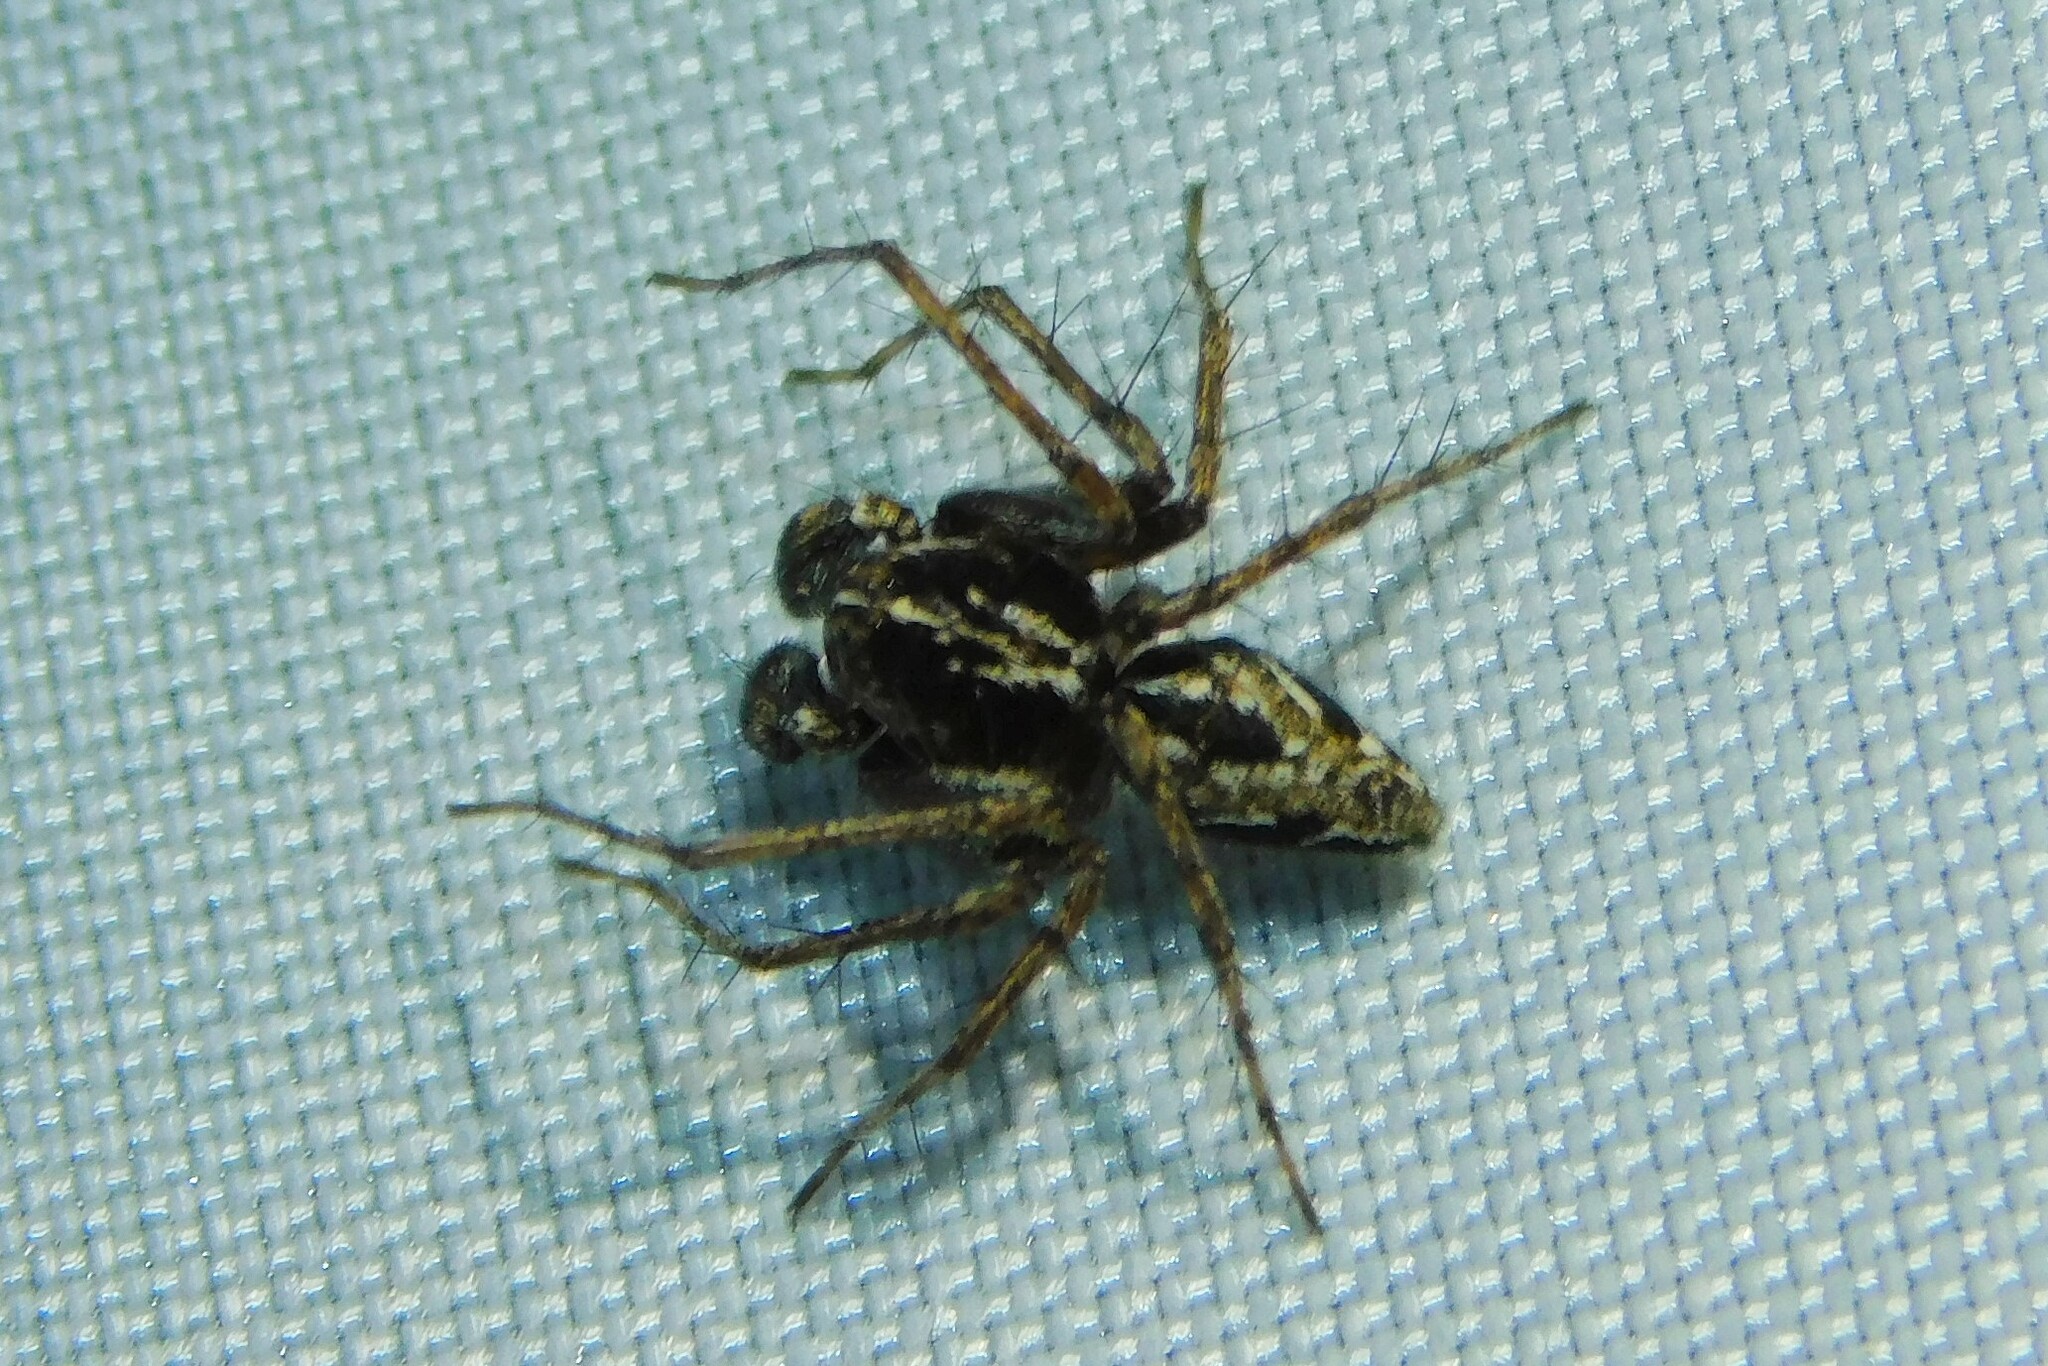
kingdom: Animalia
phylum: Arthropoda
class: Arachnida
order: Araneae
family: Oxyopidae
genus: Oxyopes
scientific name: Oxyopes ramosus
